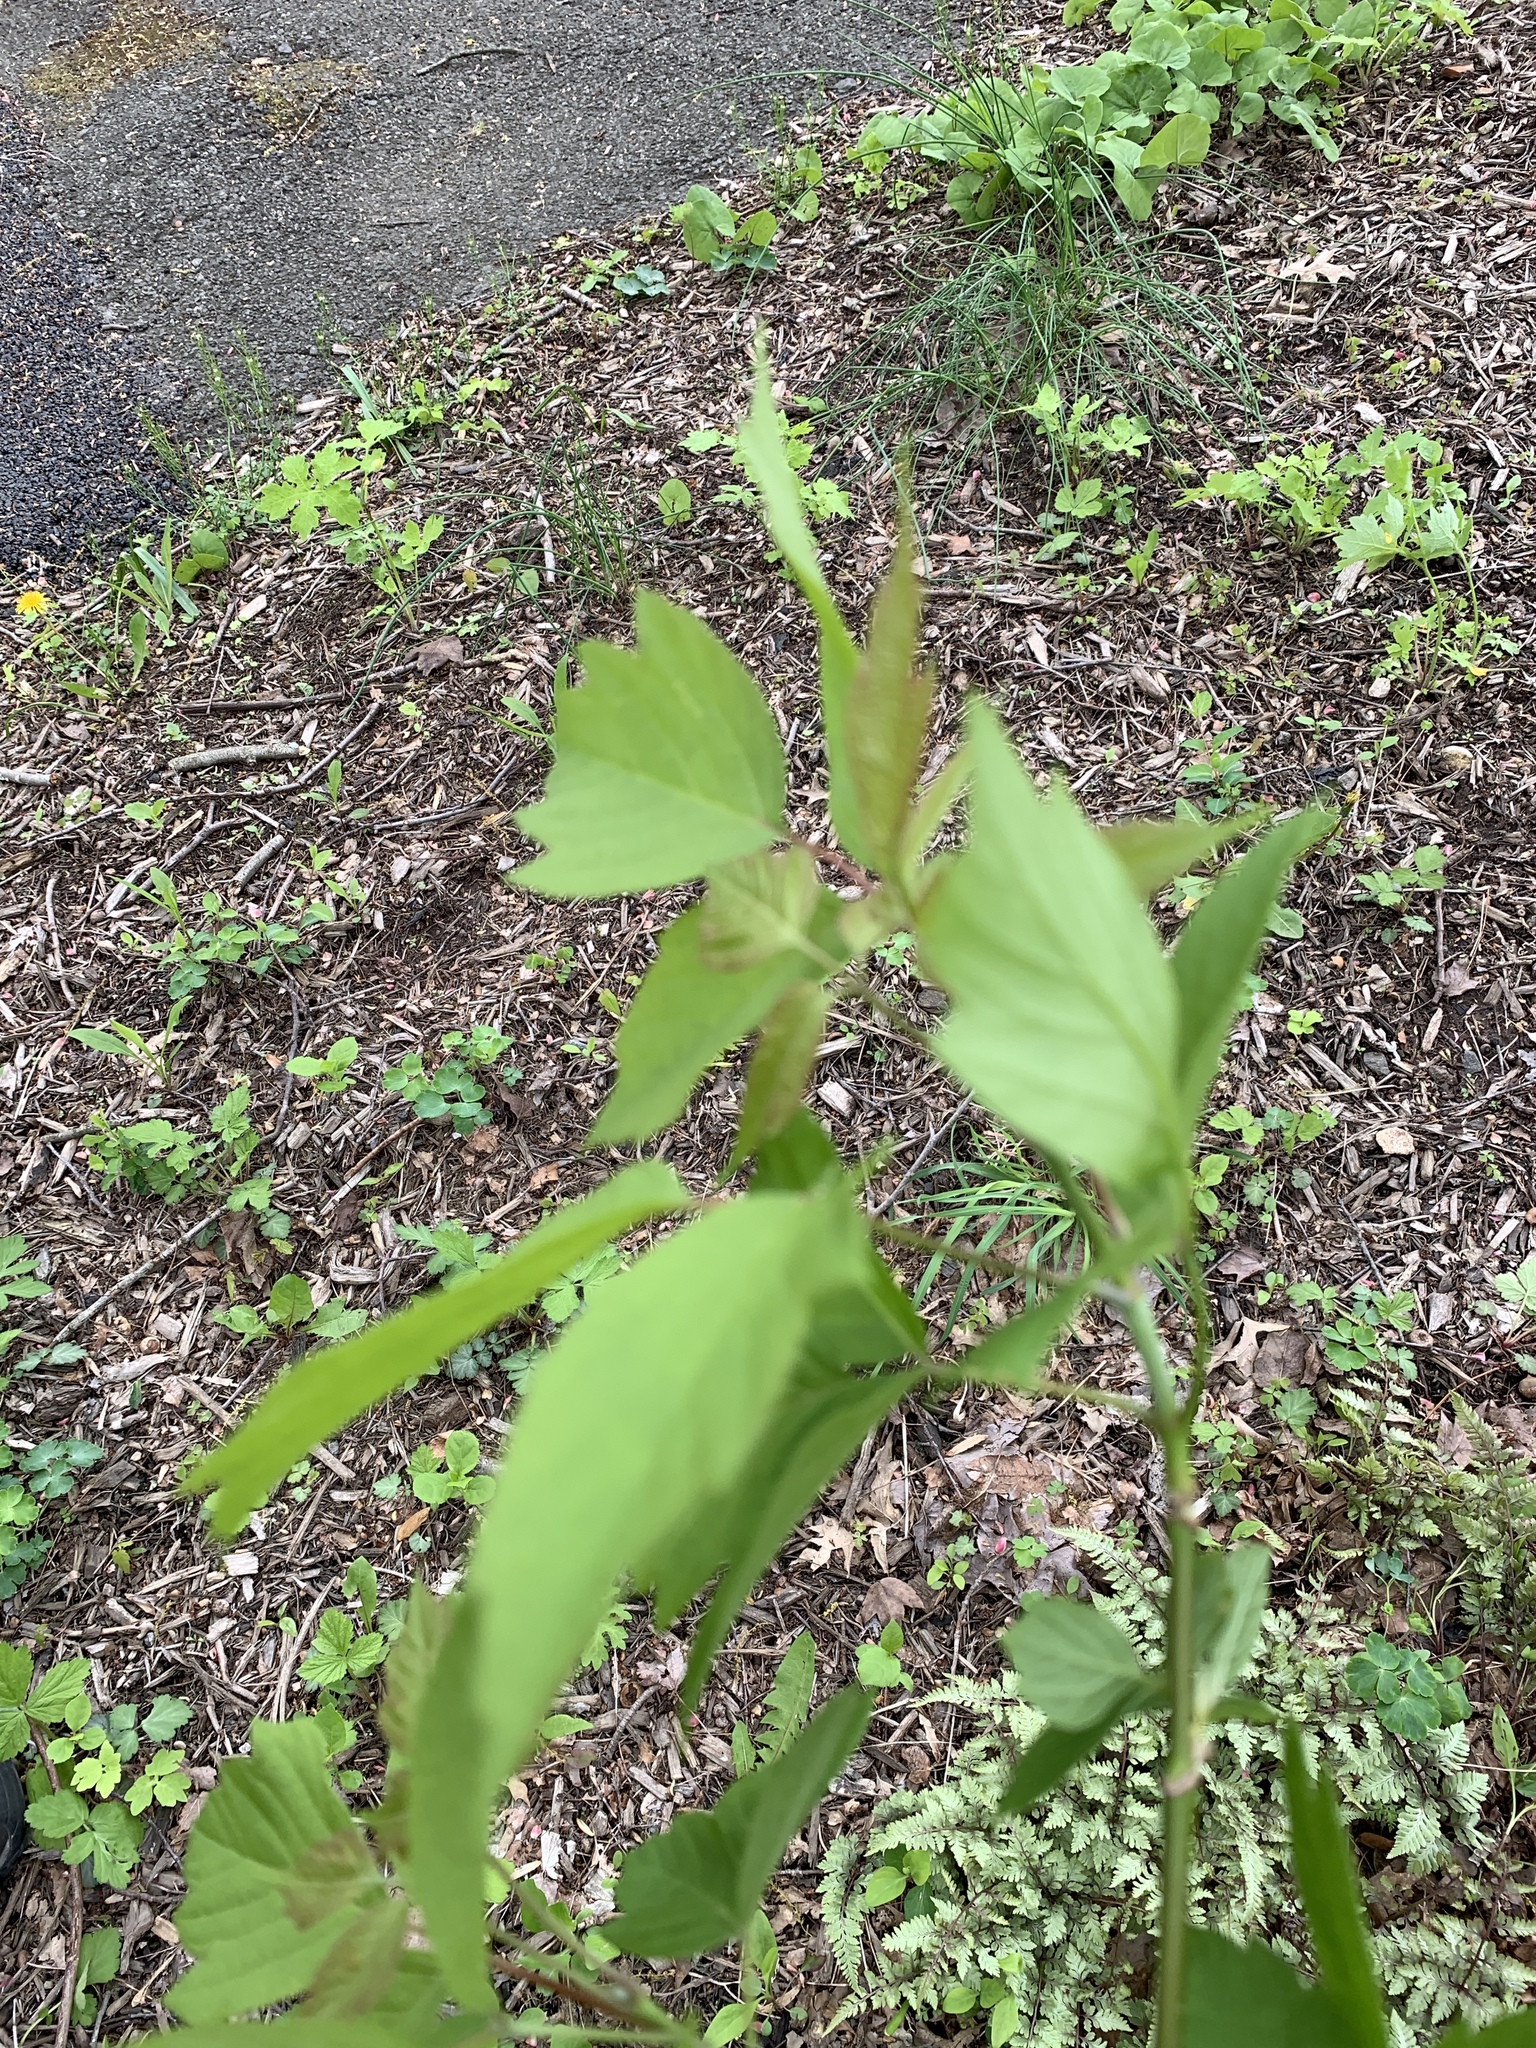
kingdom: Plantae
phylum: Tracheophyta
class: Magnoliopsida
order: Sapindales
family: Sapindaceae
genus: Acer
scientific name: Acer negundo
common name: Ashleaf maple
